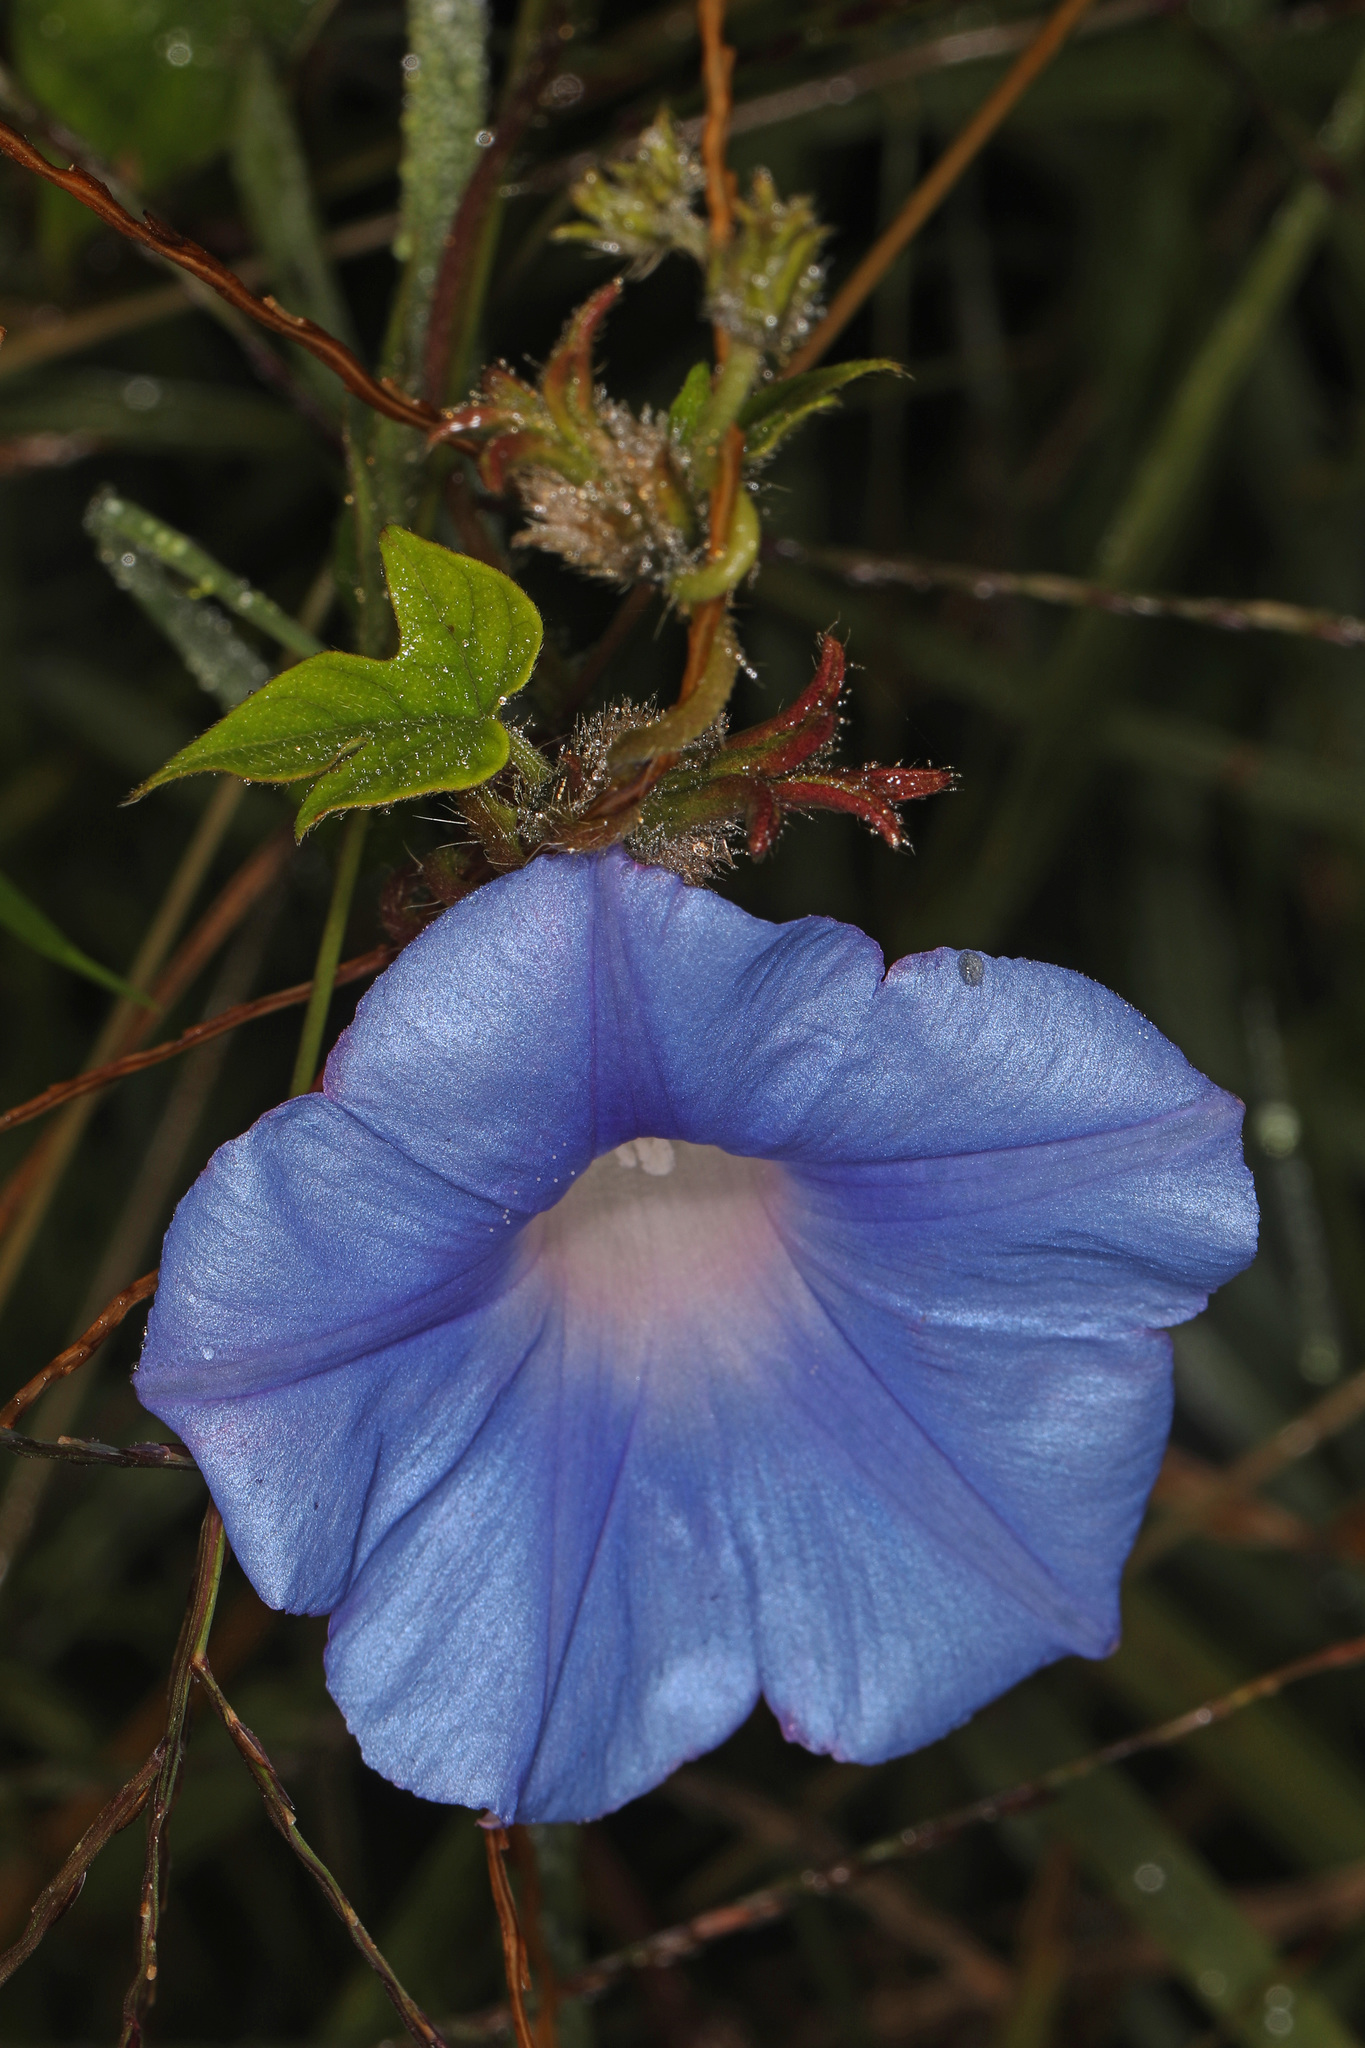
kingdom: Plantae
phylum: Tracheophyta
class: Magnoliopsida
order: Solanales
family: Convolvulaceae
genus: Ipomoea
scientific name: Ipomoea hederacea
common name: Ivy-leaved morning-glory
